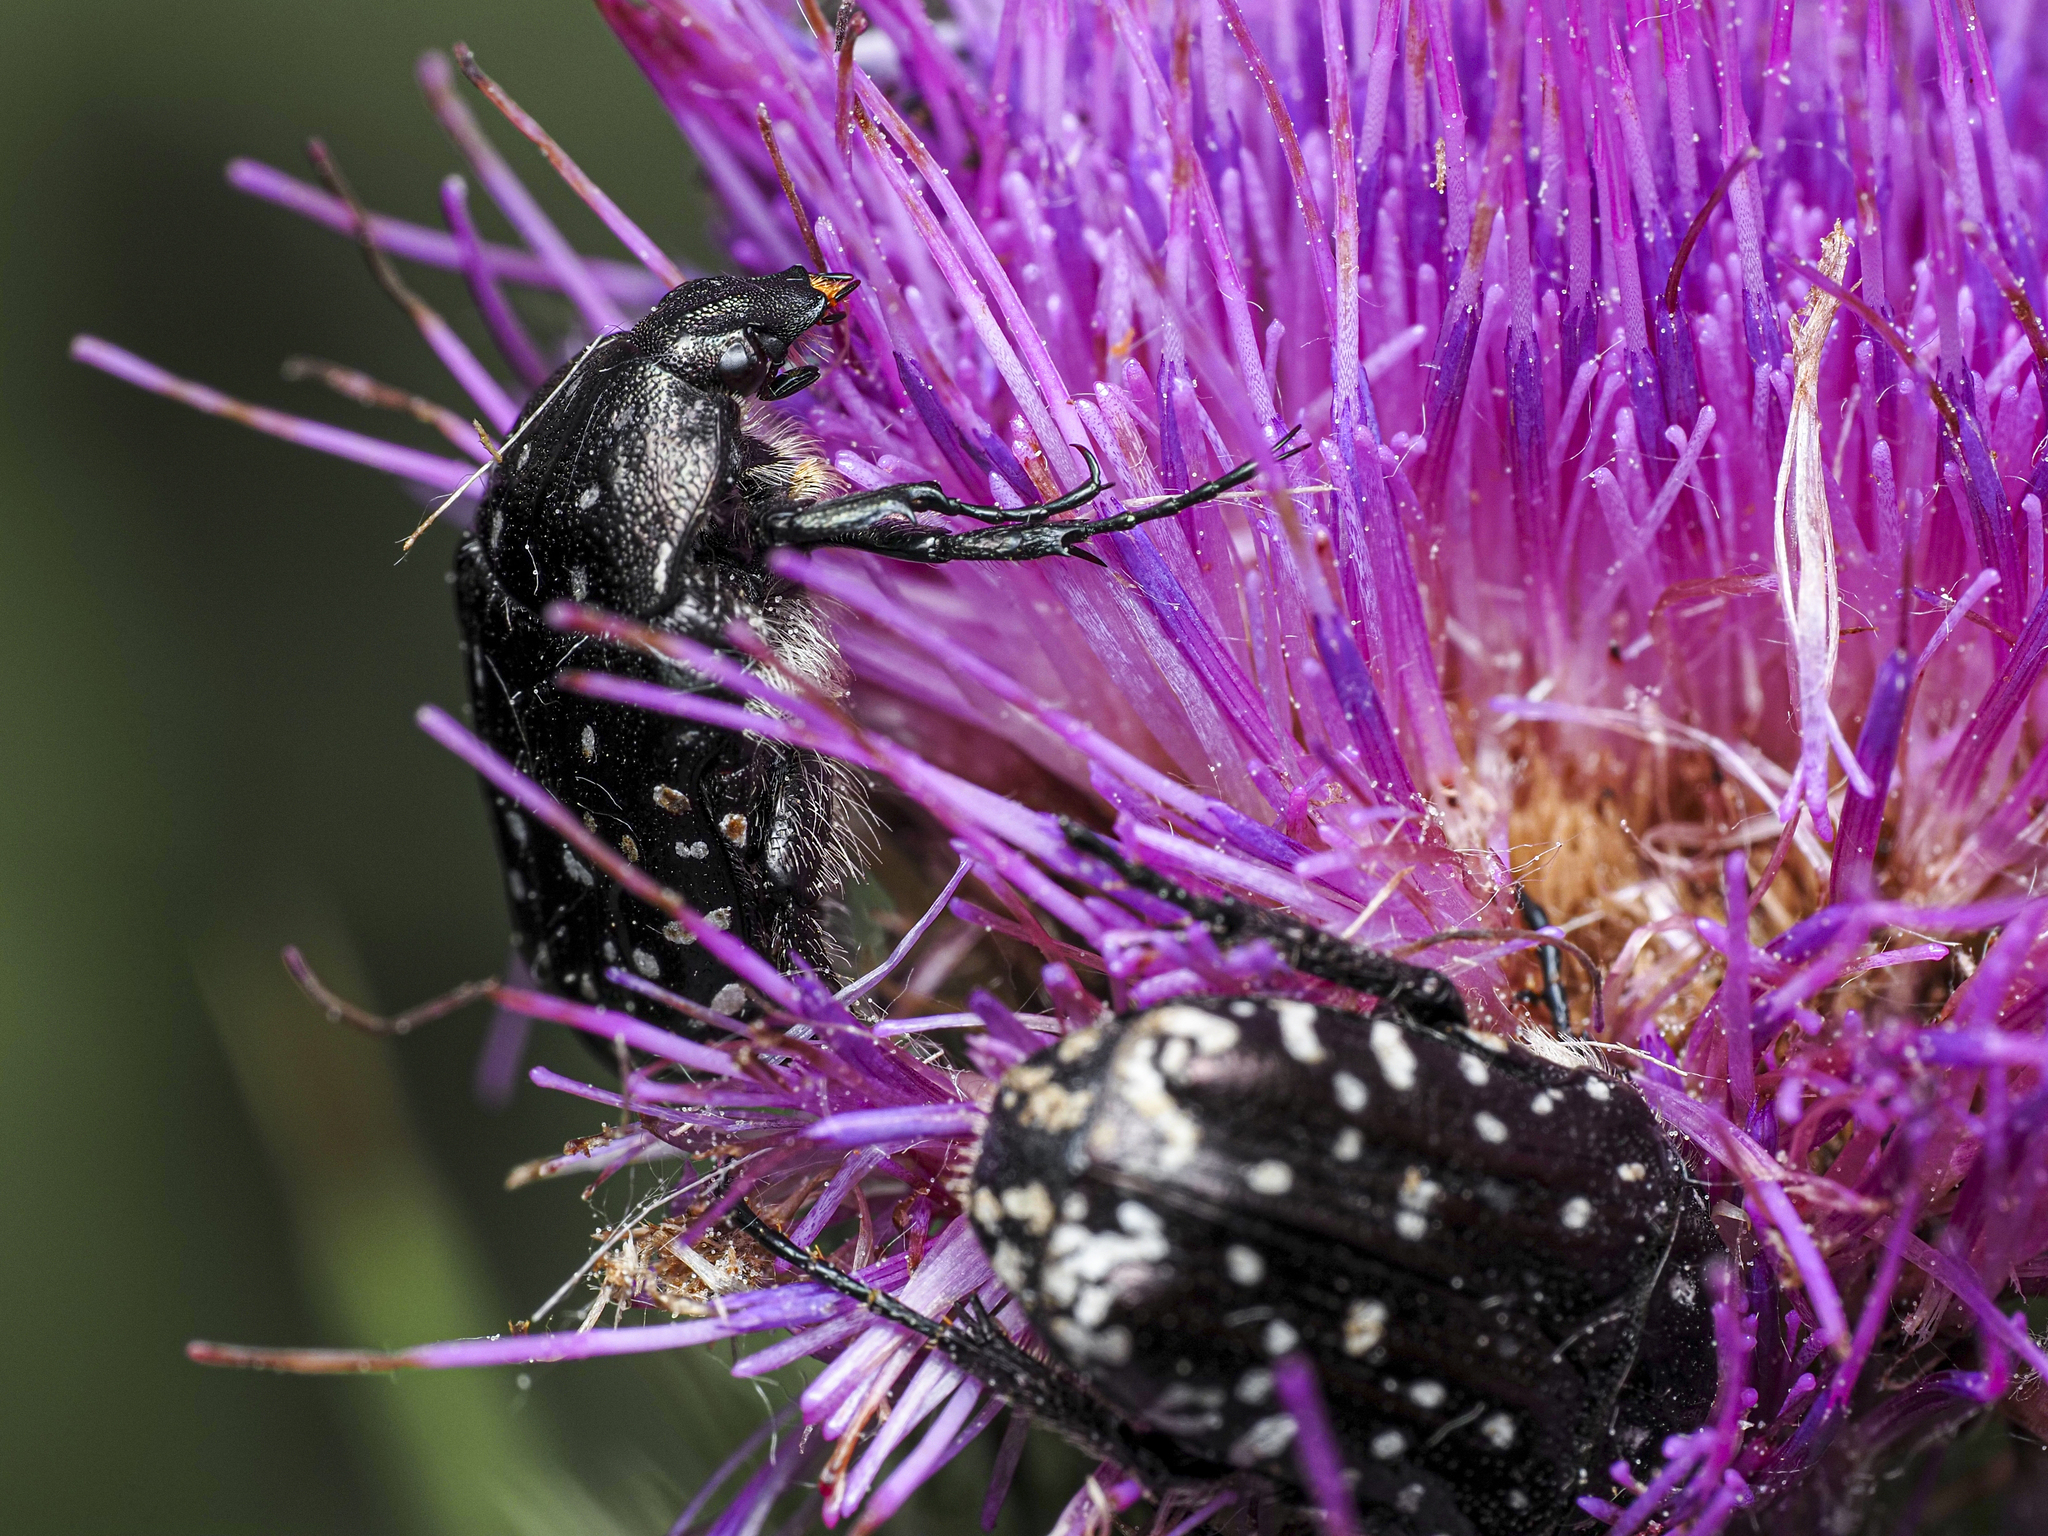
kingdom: Animalia
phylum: Arthropoda
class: Insecta
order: Coleoptera
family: Scarabaeidae
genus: Oxythyrea
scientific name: Oxythyrea funesta
